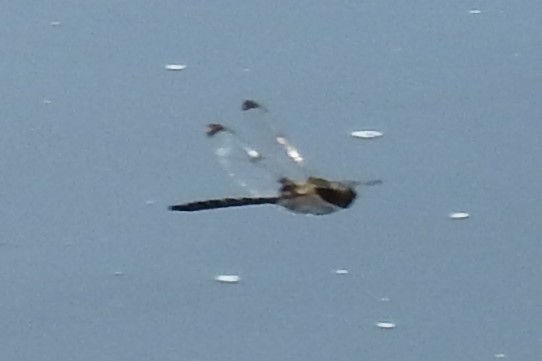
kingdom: Animalia
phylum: Arthropoda
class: Insecta
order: Odonata
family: Corduliidae
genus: Epitheca
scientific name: Epitheca princeps
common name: Prince baskettail
